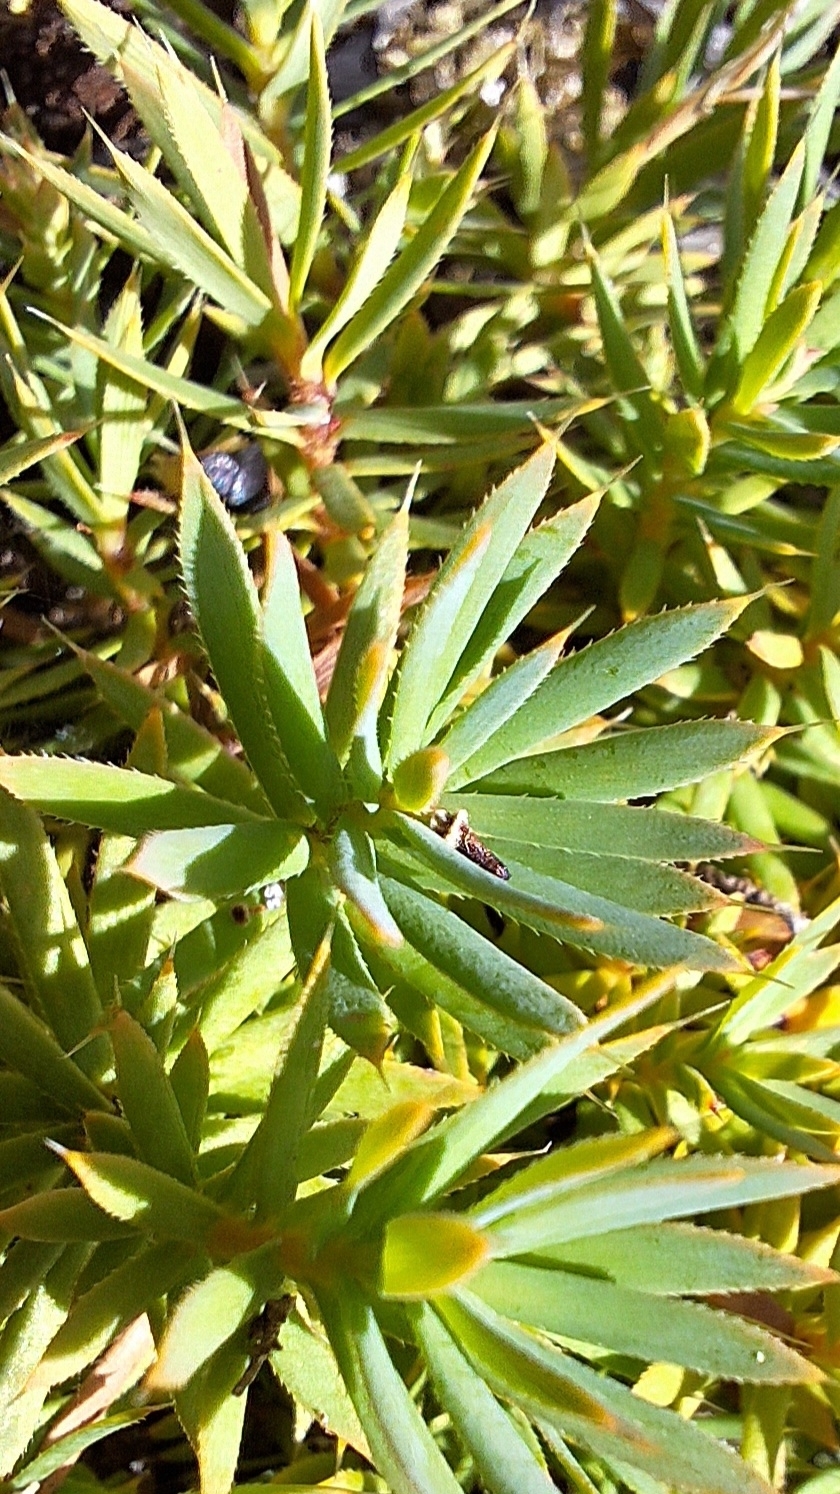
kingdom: Plantae
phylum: Tracheophyta
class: Magnoliopsida
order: Ericales
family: Ericaceae
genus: Styphelia
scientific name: Styphelia humifusa
